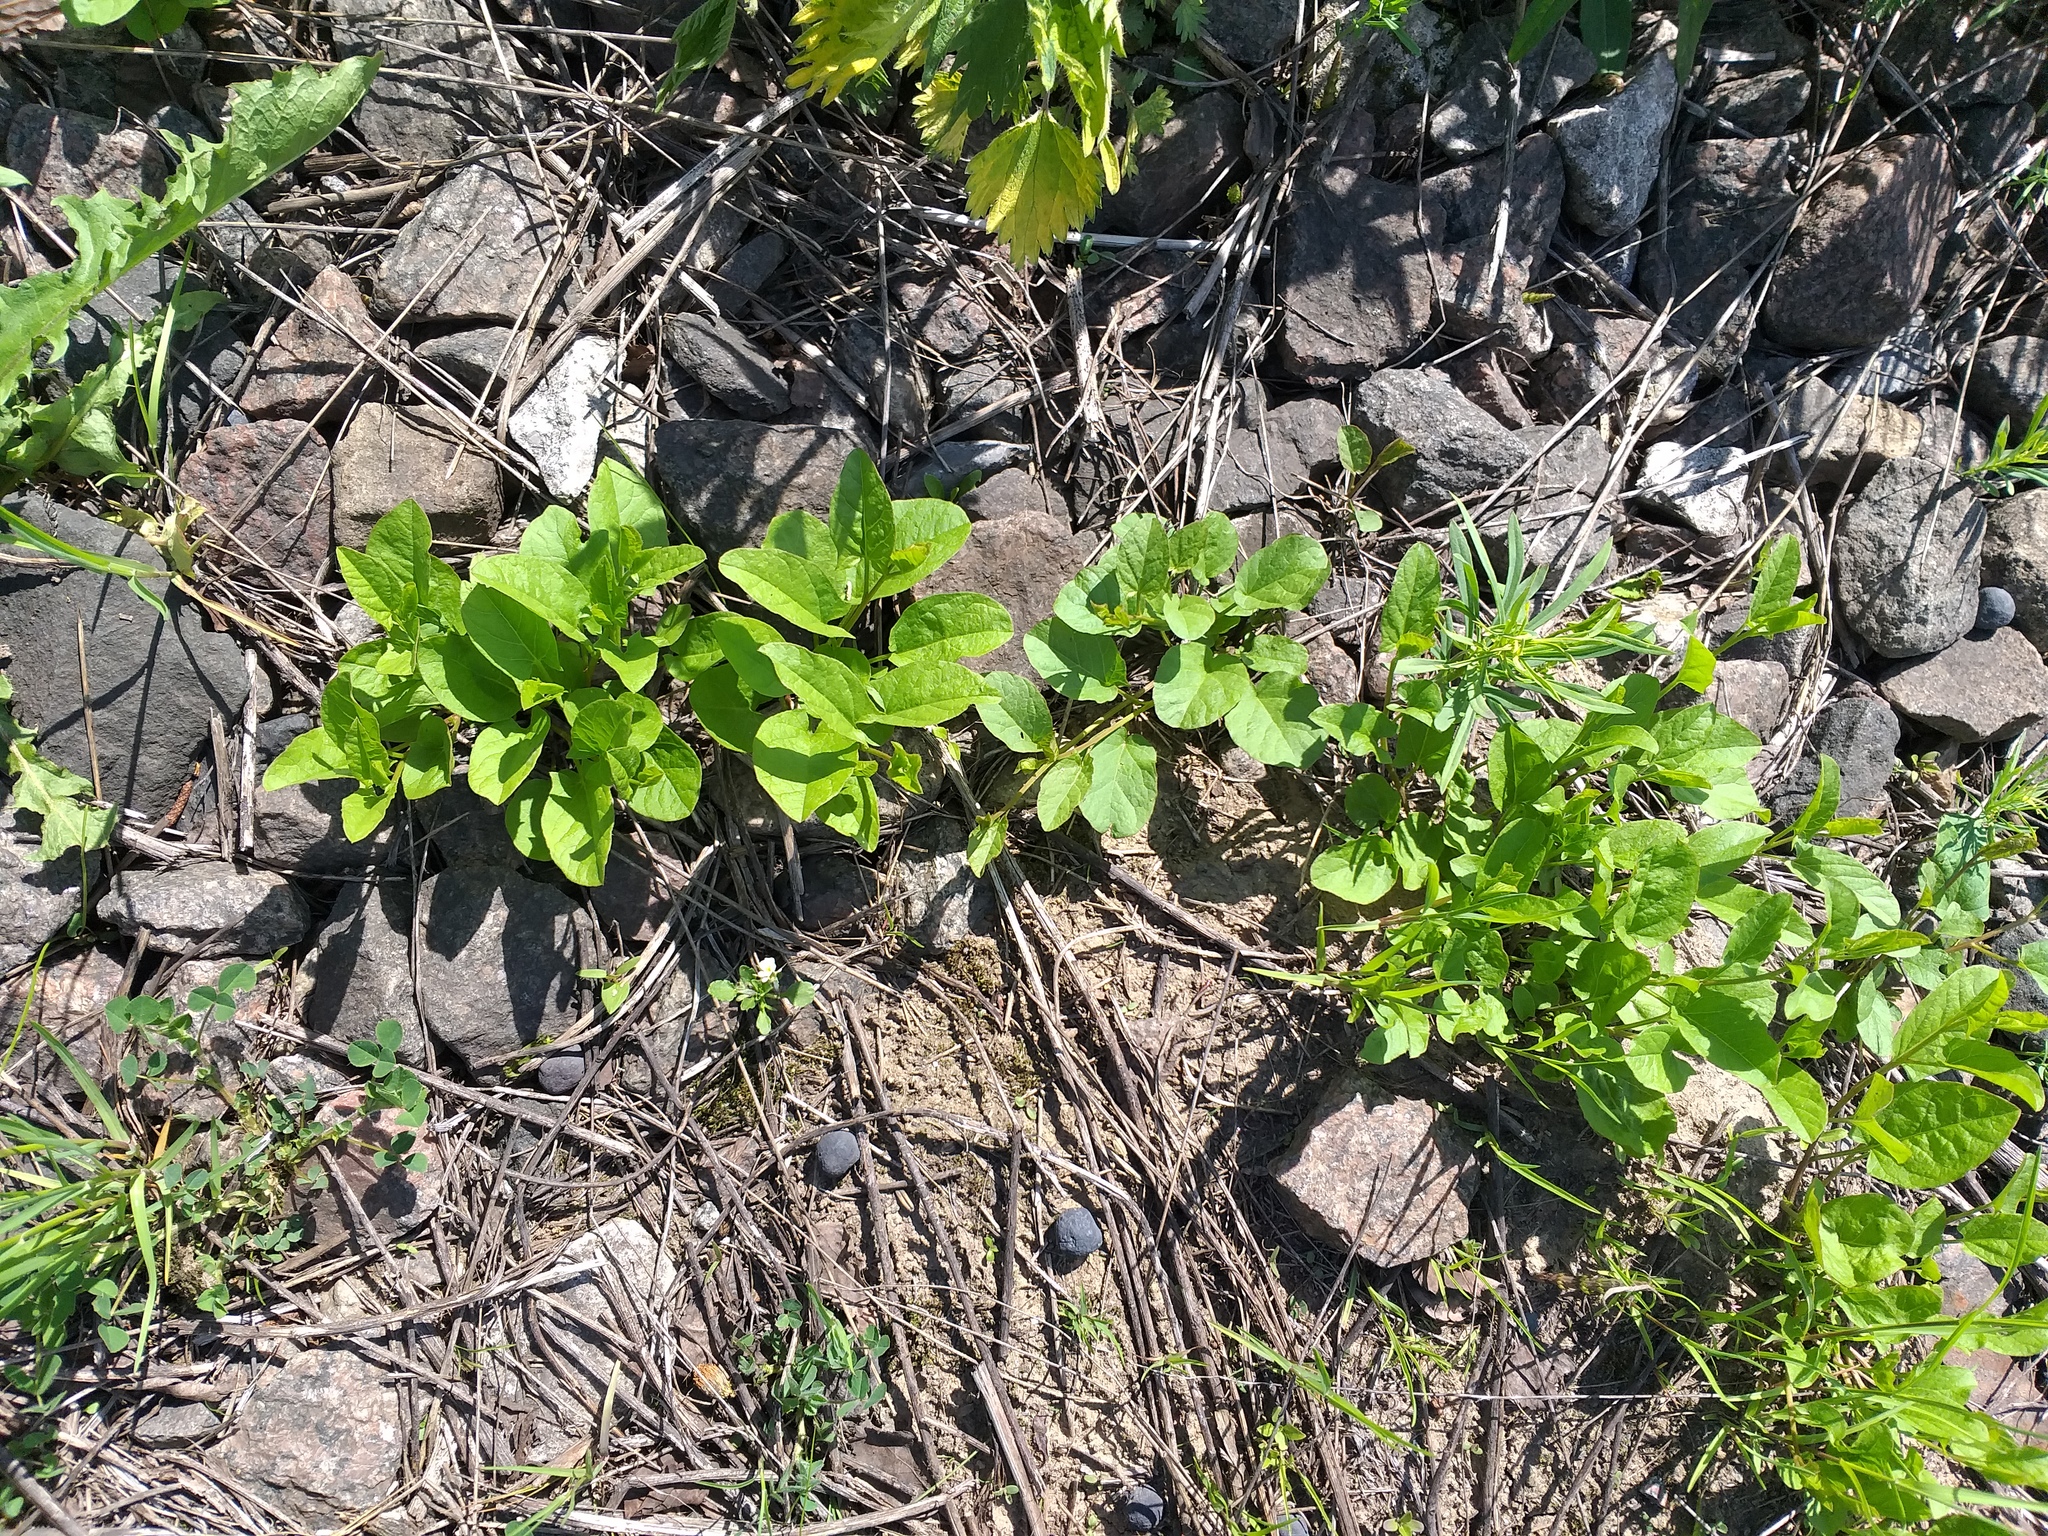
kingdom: Plantae
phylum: Tracheophyta
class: Magnoliopsida
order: Solanales
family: Convolvulaceae
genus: Convolvulus
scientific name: Convolvulus arvensis
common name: Field bindweed
